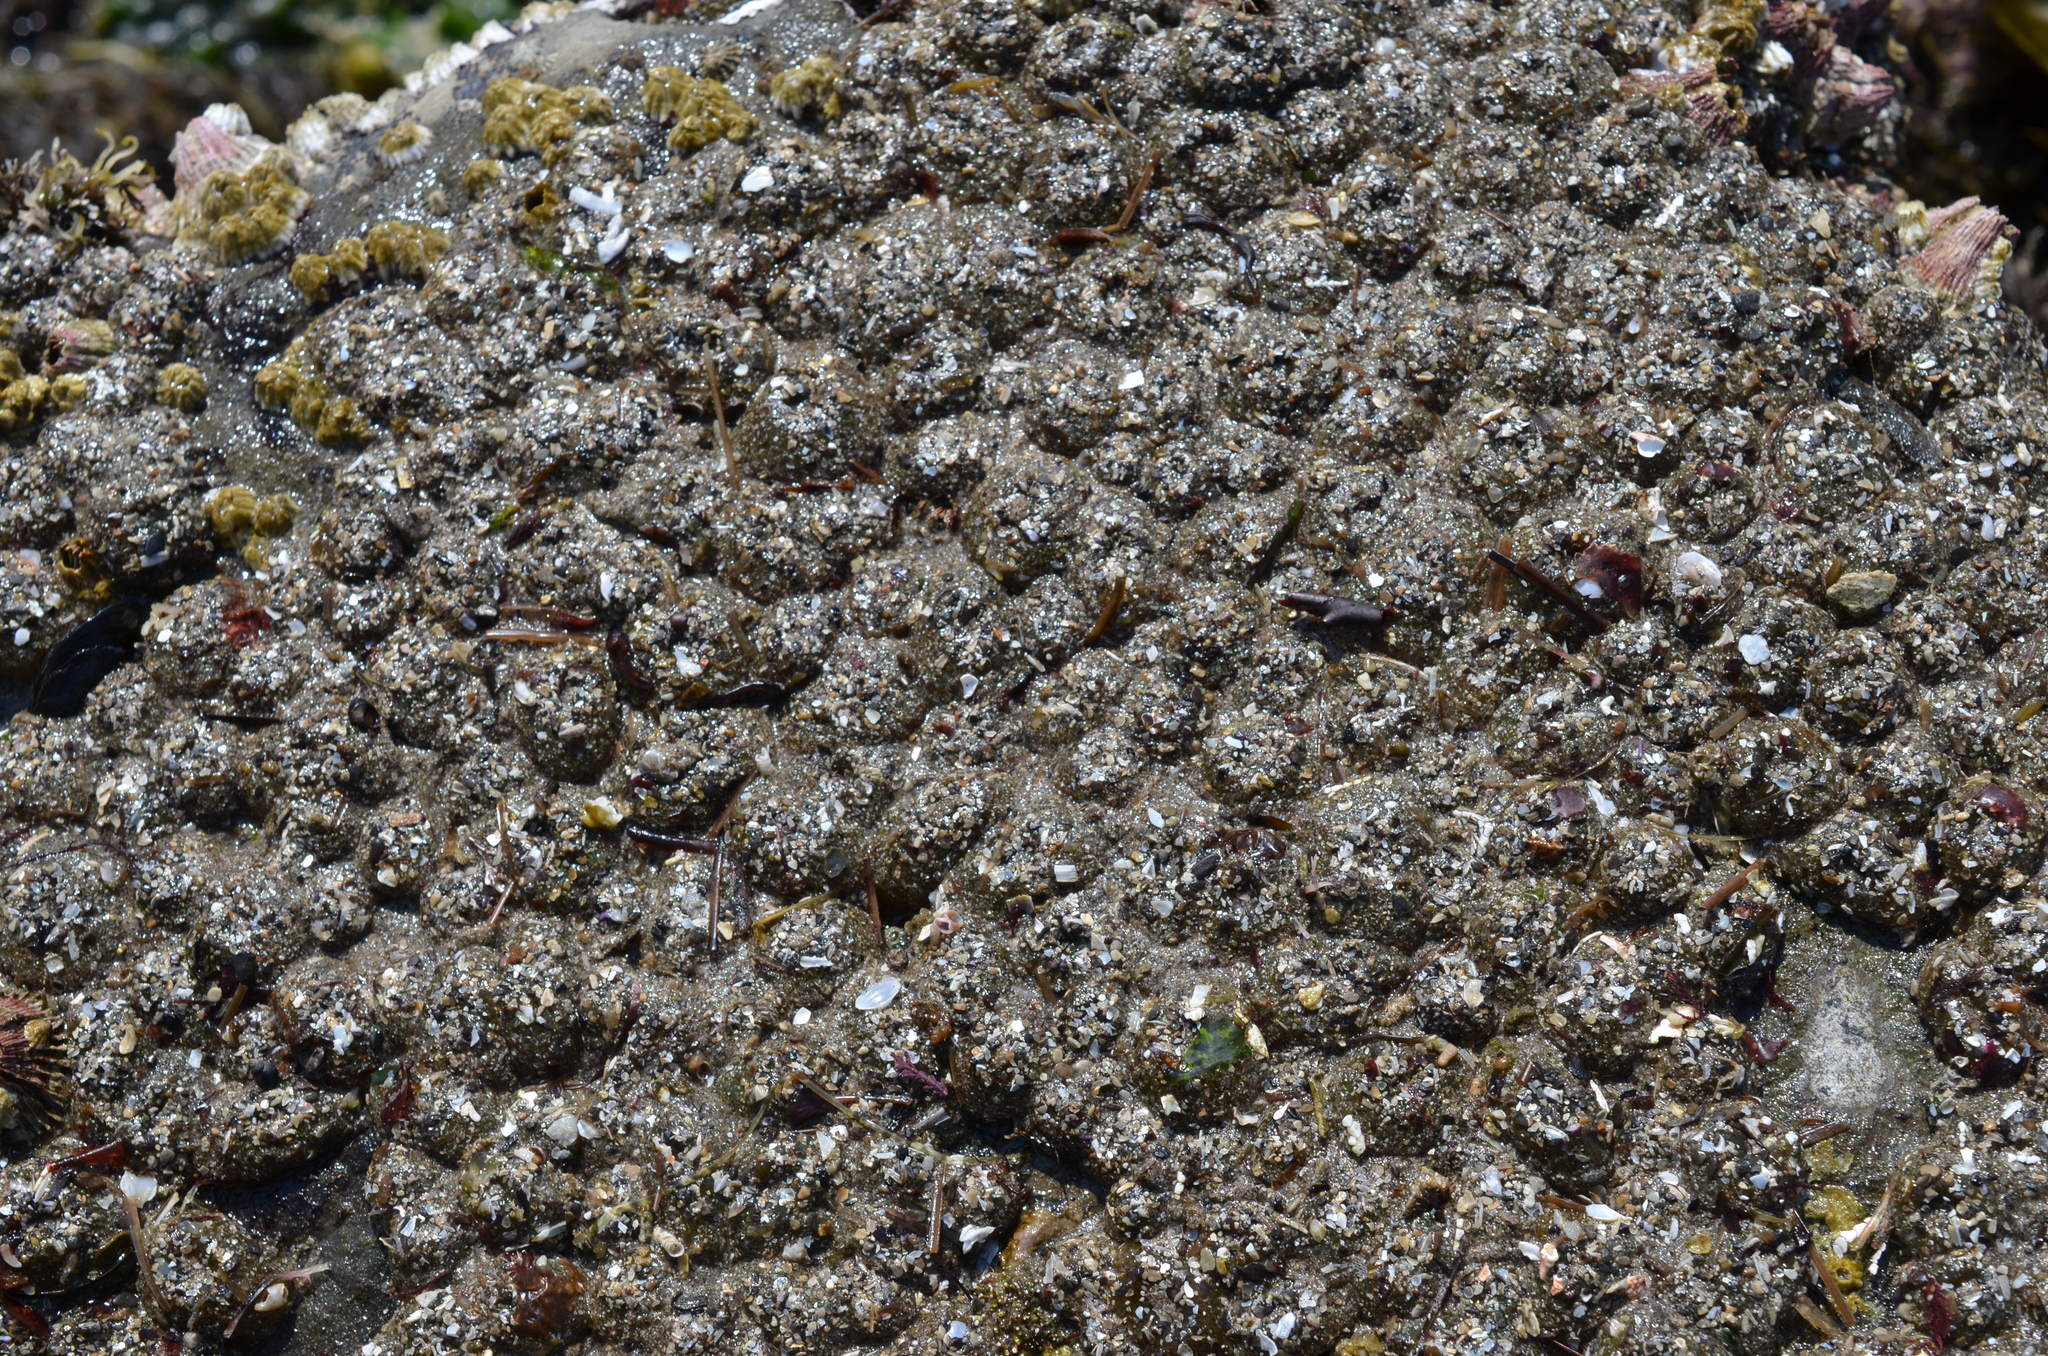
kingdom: Animalia
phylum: Cnidaria
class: Anthozoa
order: Actiniaria
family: Actiniidae
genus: Anthopleura
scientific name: Anthopleura elegantissima
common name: Clonal anemone
